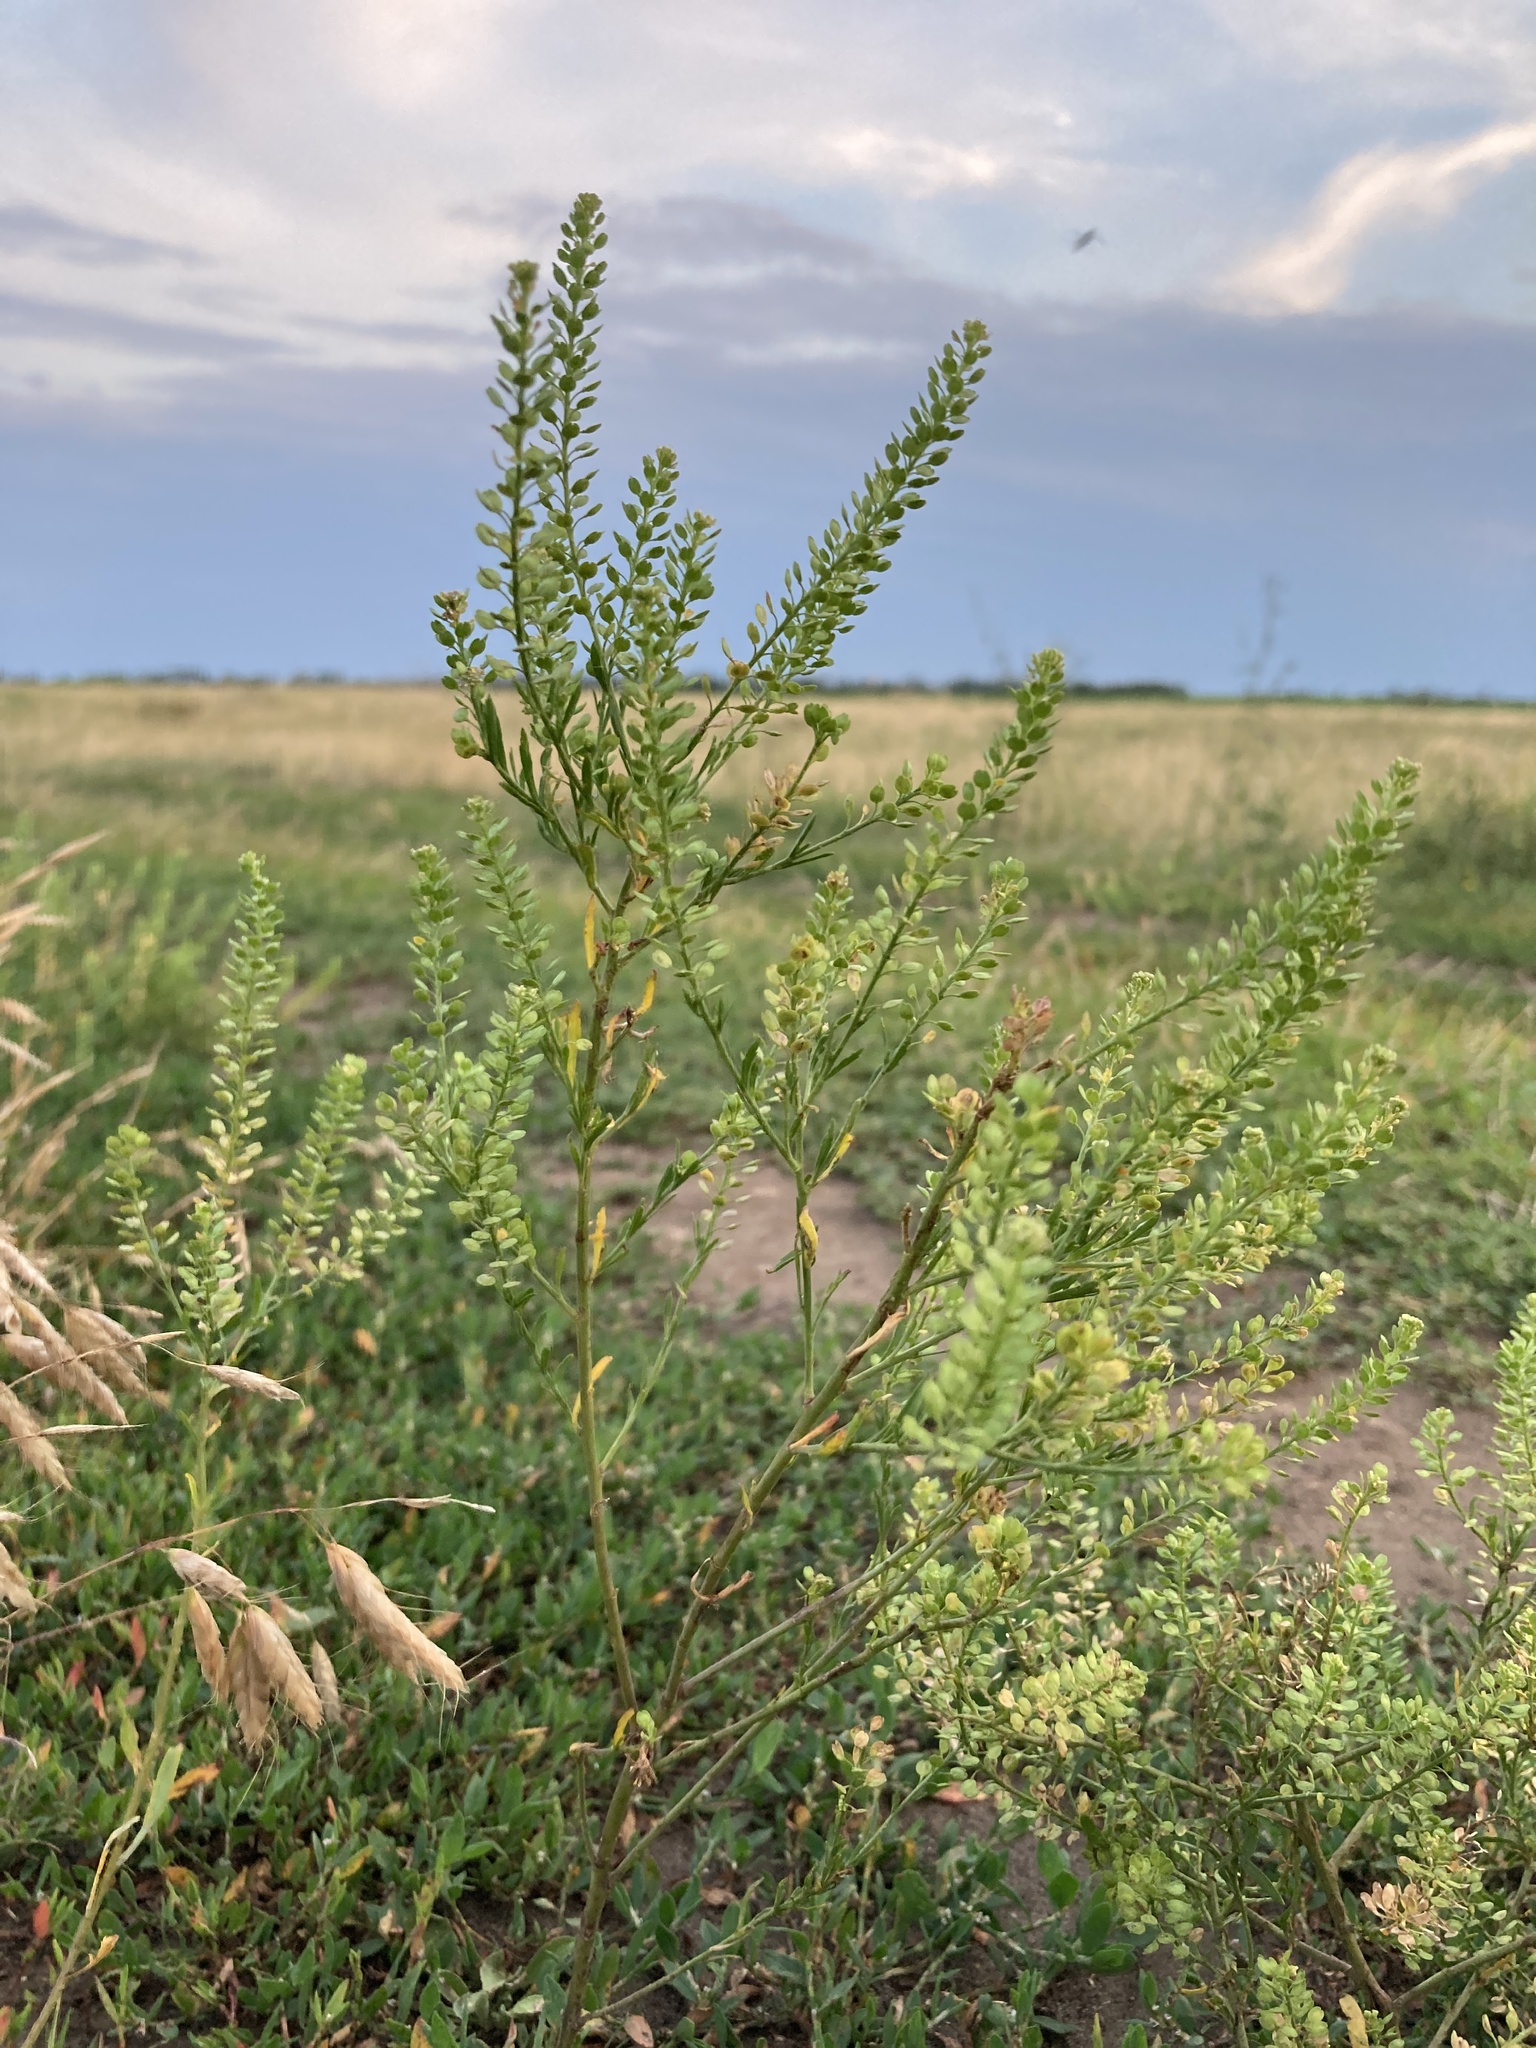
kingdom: Plantae
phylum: Tracheophyta
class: Magnoliopsida
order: Brassicales
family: Brassicaceae
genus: Lepidium
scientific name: Lepidium densiflorum
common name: Miner's pepperwort
